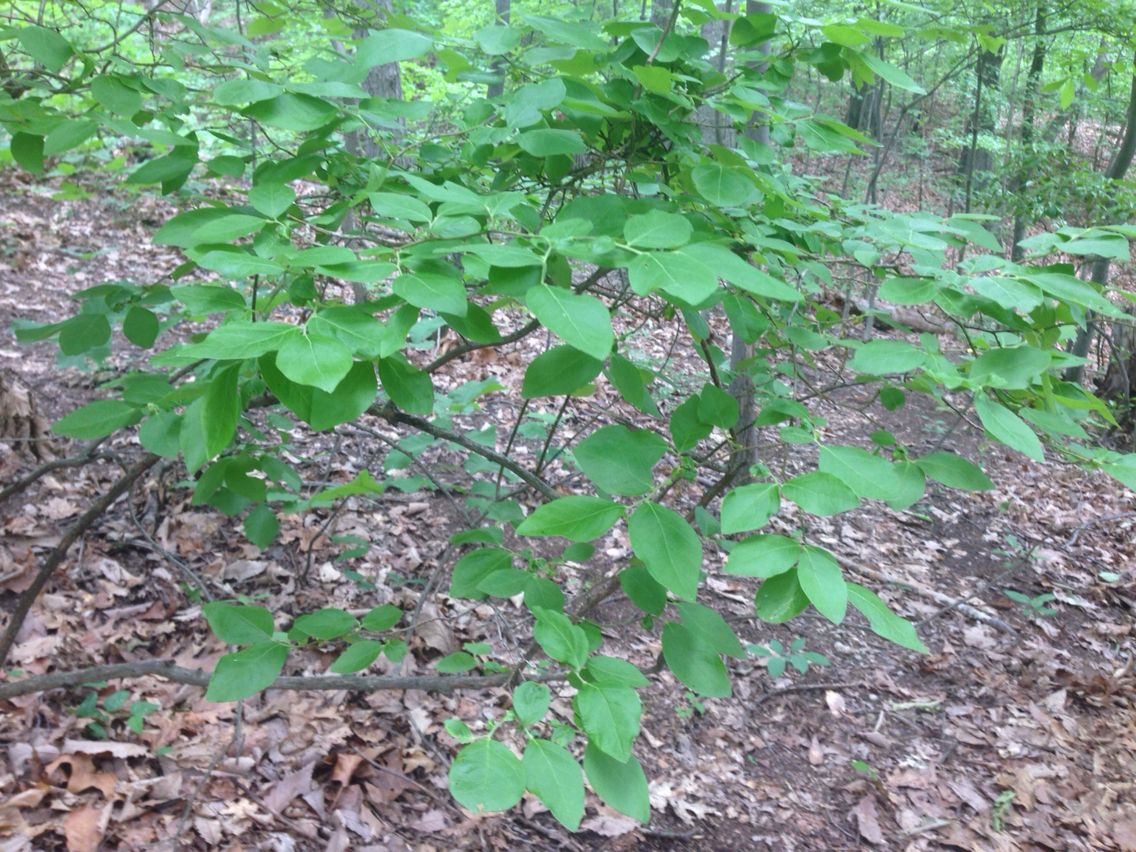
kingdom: Plantae
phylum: Tracheophyta
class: Magnoliopsida
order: Ericales
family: Ericaceae
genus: Vaccinium
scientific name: Vaccinium corymbosum
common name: Blueberry
